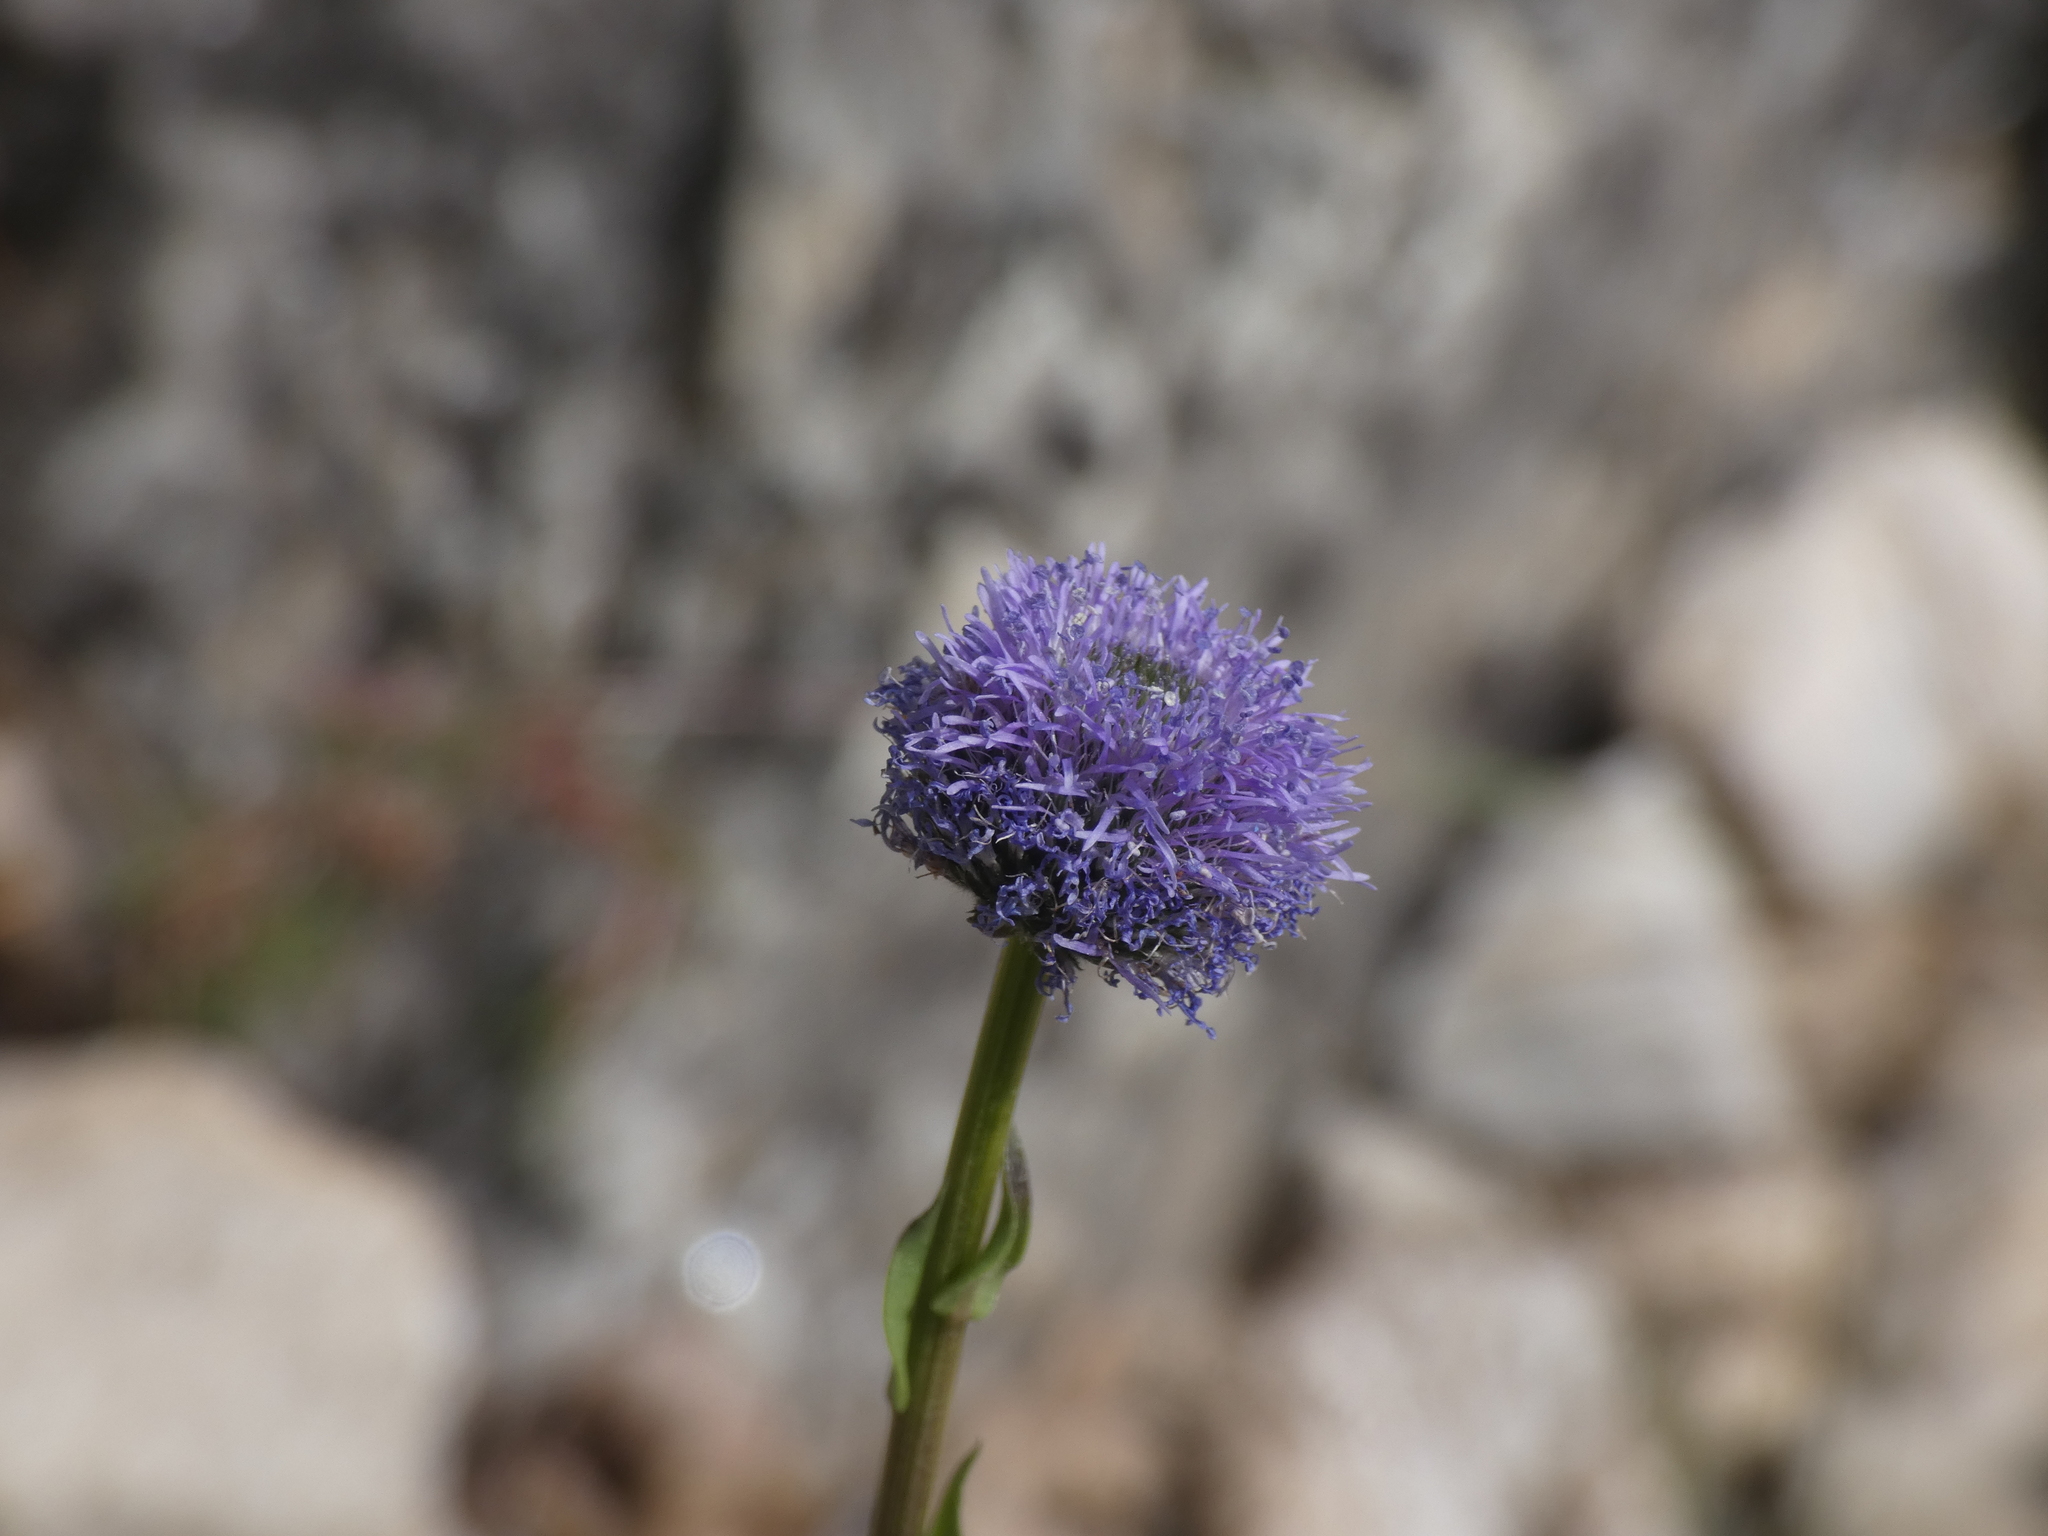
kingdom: Plantae
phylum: Tracheophyta
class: Magnoliopsida
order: Lamiales
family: Plantaginaceae
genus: Globularia
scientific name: Globularia bisnagarica
